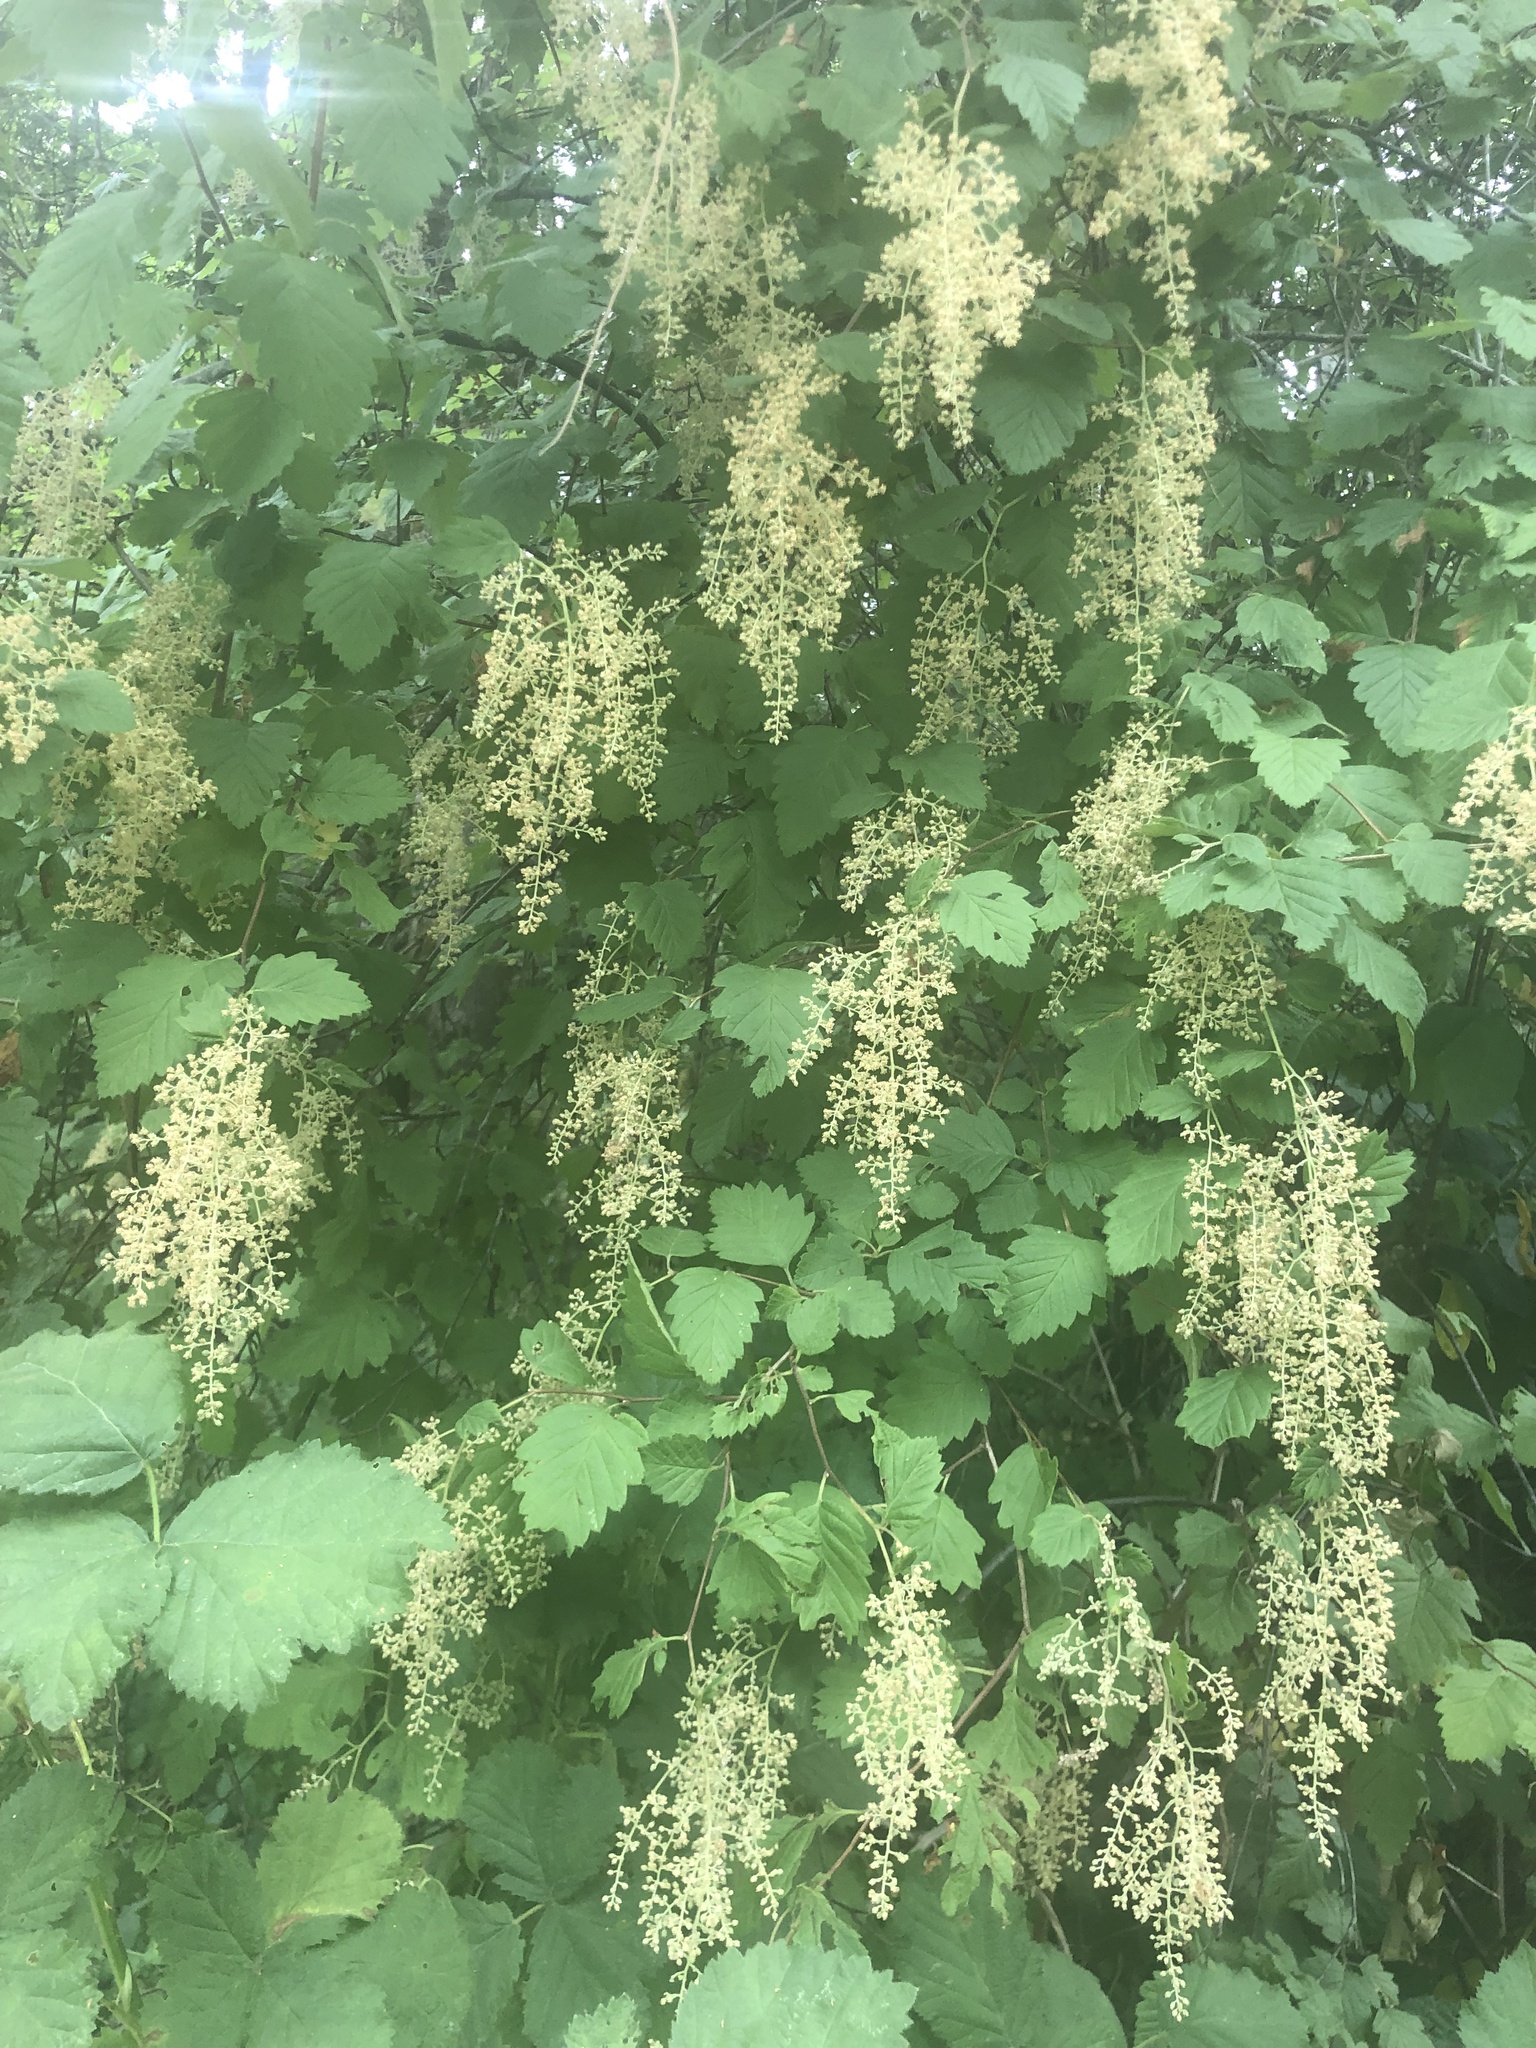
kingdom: Plantae
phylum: Tracheophyta
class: Magnoliopsida
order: Rosales
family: Rosaceae
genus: Holodiscus
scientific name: Holodiscus discolor
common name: Oceanspray
